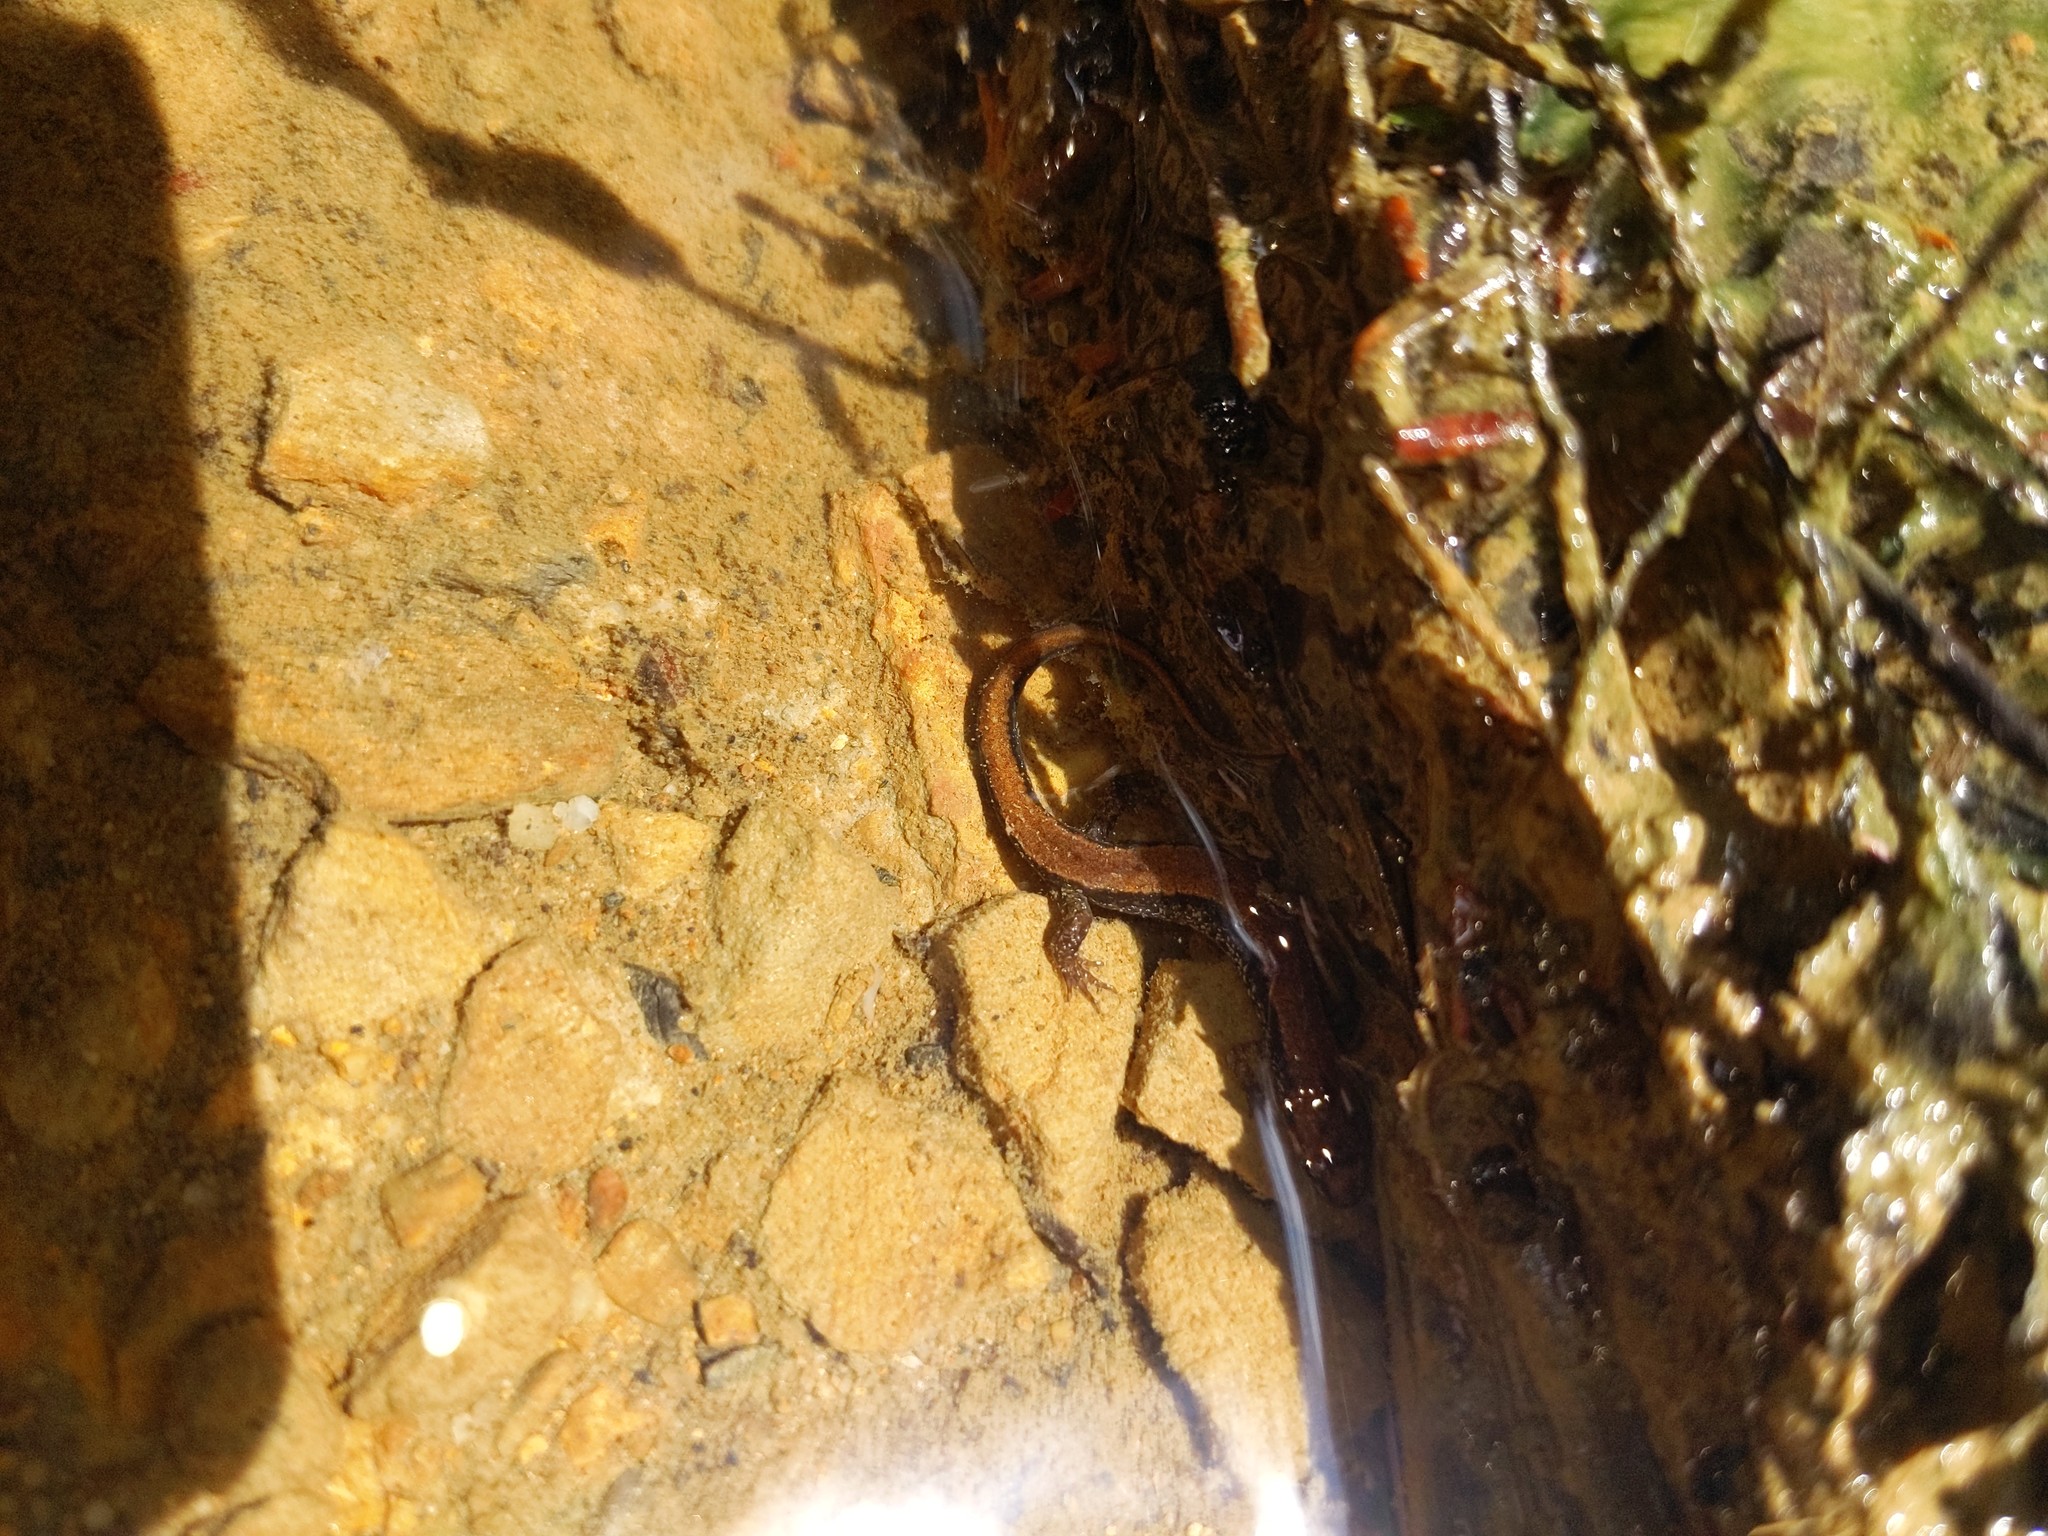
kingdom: Animalia
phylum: Chordata
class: Amphibia
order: Caudata
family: Plethodontidae
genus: Desmognathus
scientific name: Desmognathus ochrophaeus
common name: Allegheny mountain dusky salamander
